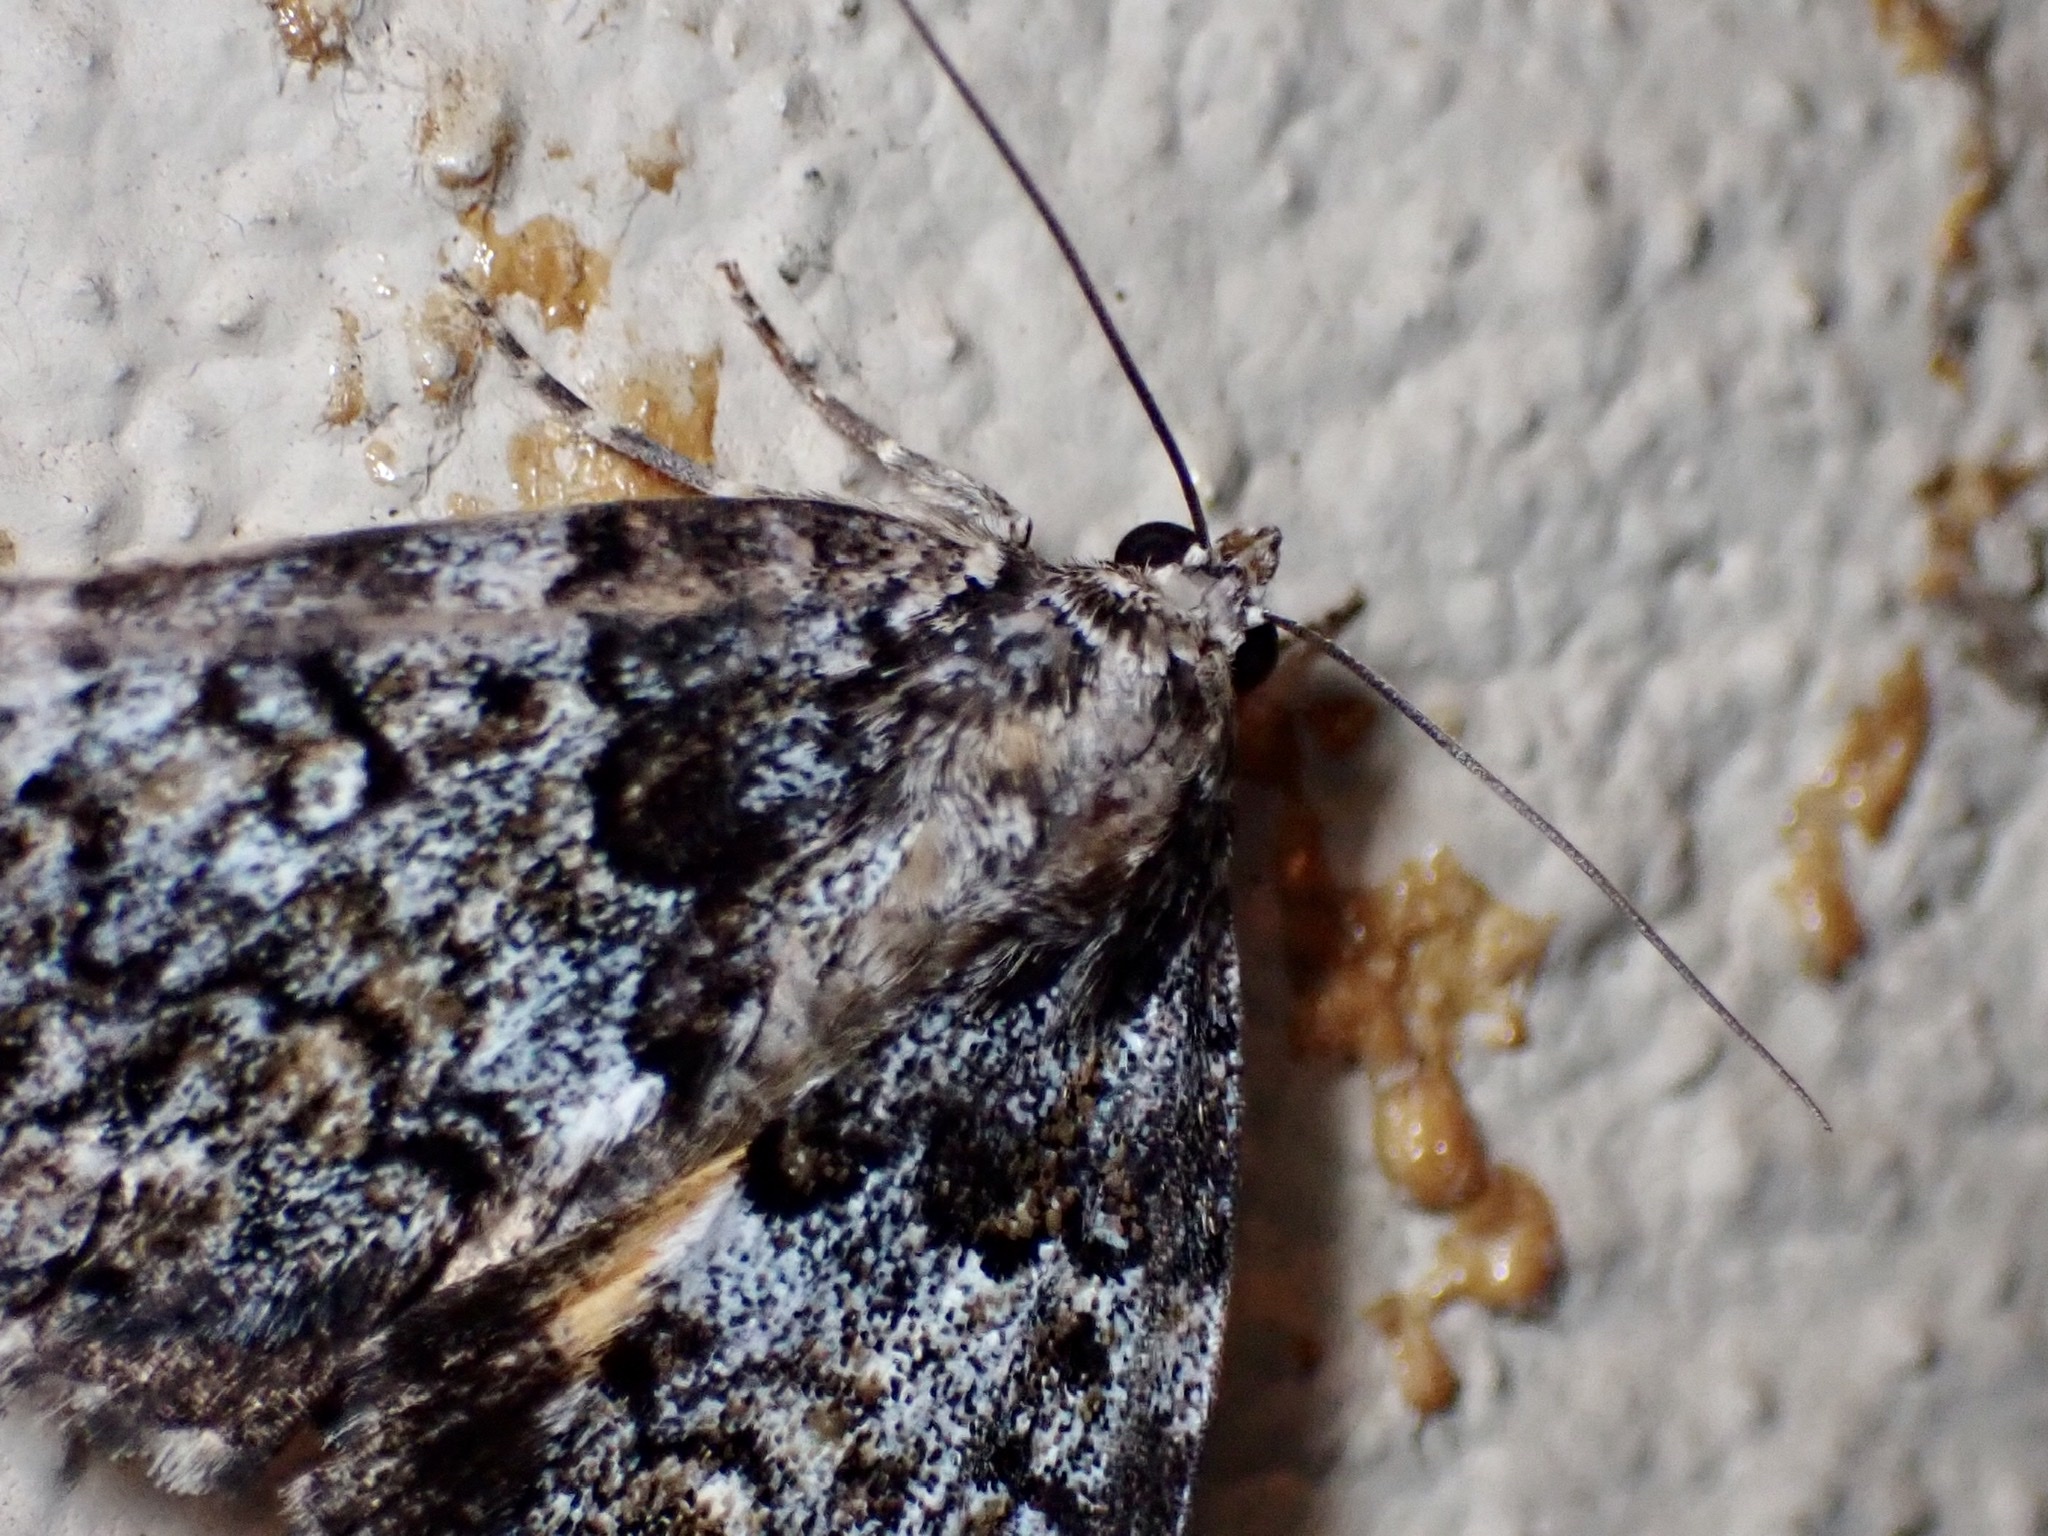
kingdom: Animalia
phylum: Arthropoda
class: Insecta
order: Lepidoptera
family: Erebidae
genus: Allotria
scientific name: Allotria elonympha
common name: False underwing
